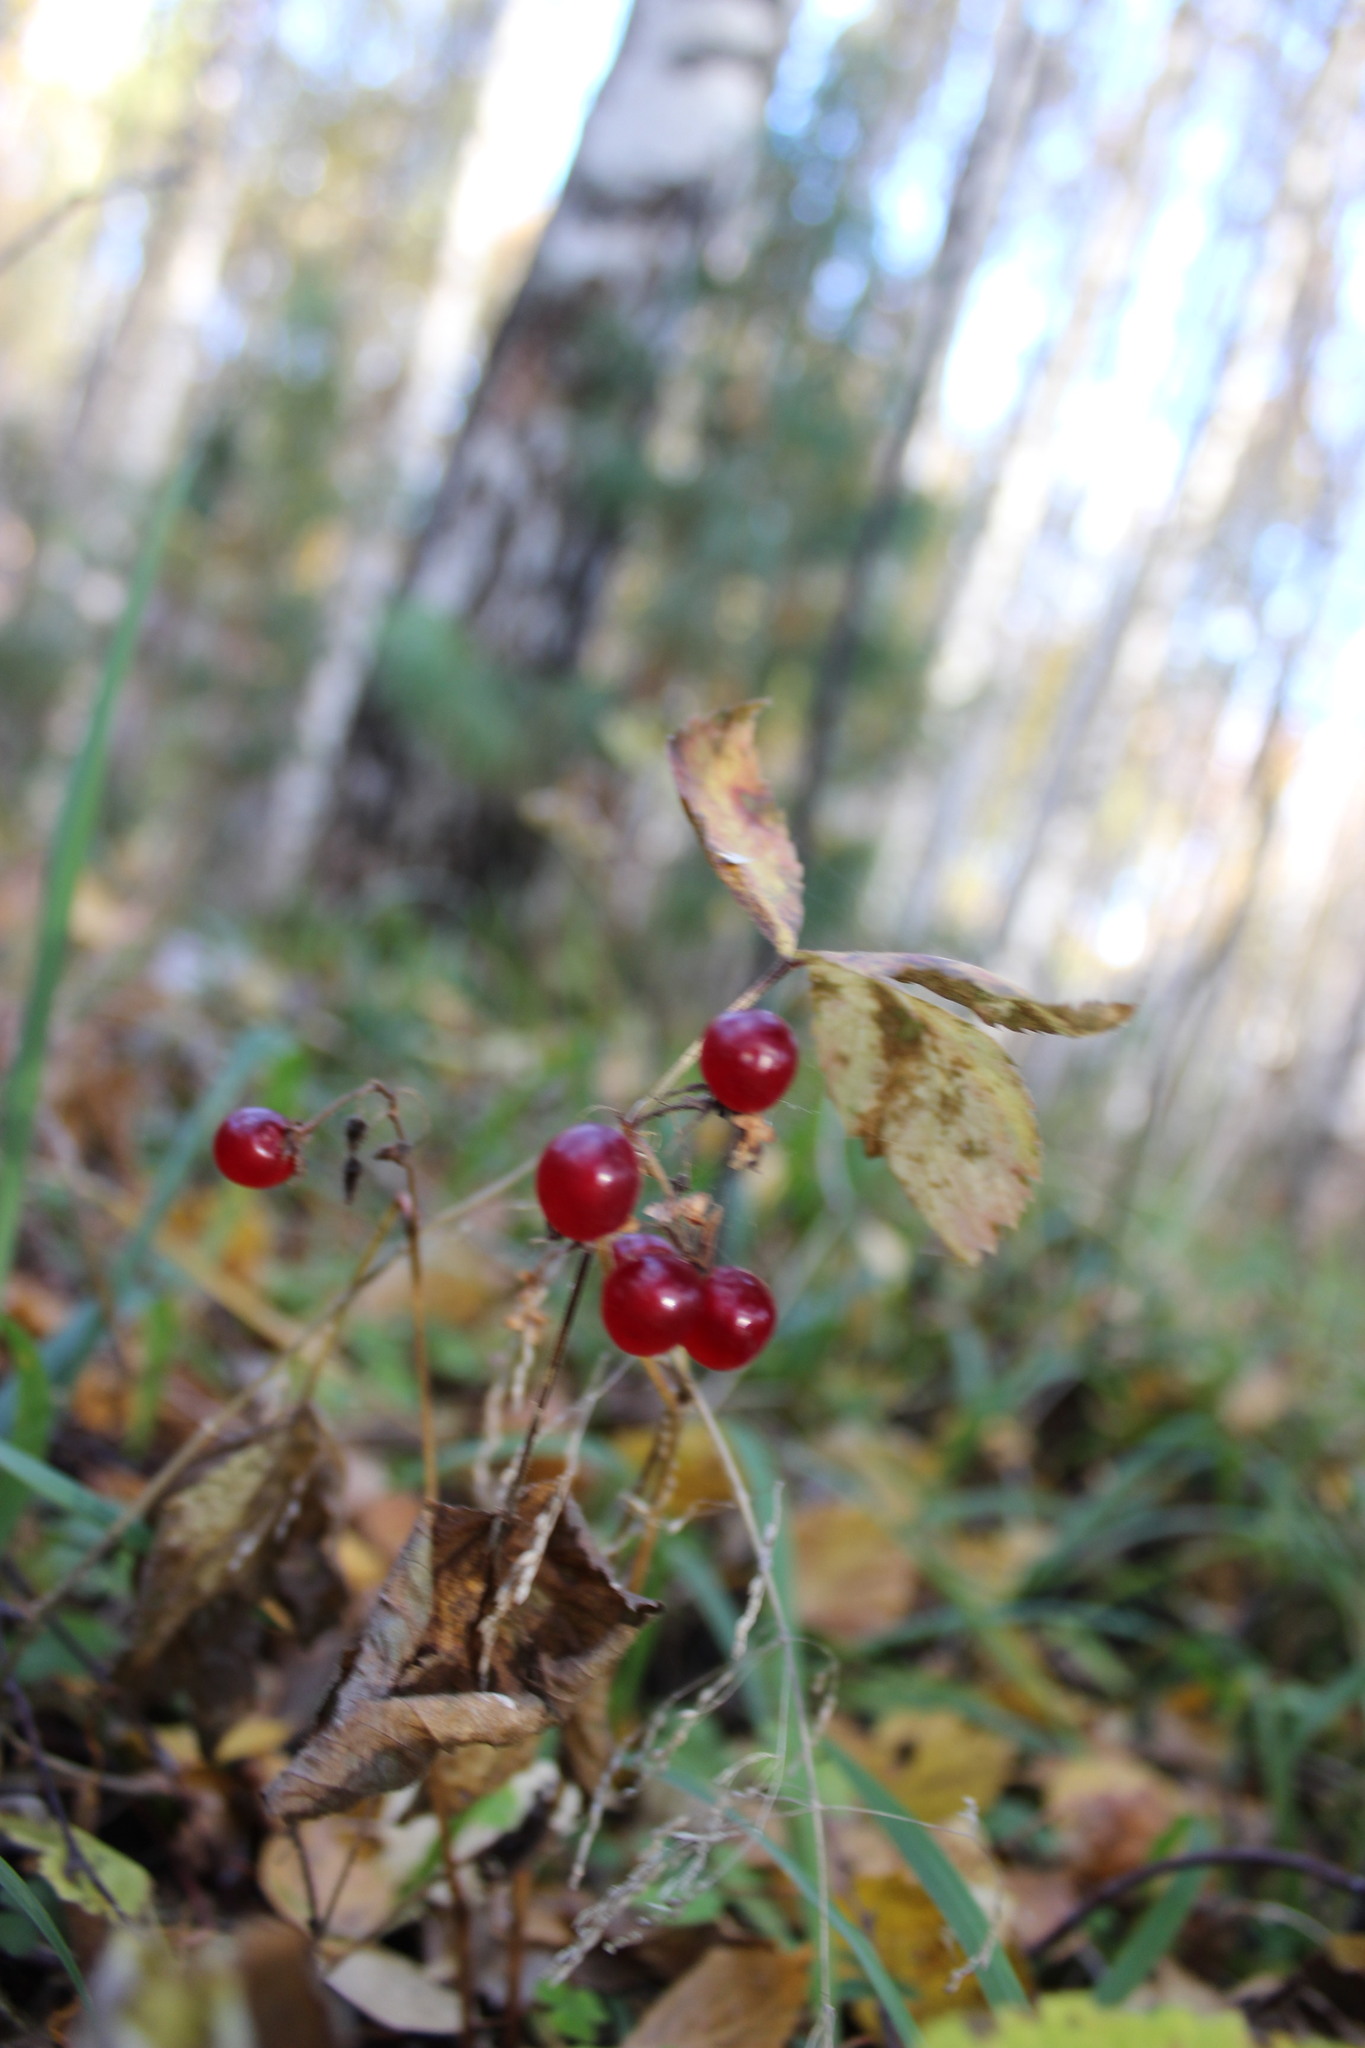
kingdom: Plantae
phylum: Tracheophyta
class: Liliopsida
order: Asparagales
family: Asparagaceae
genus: Maianthemum
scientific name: Maianthemum bifolium
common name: May lily
